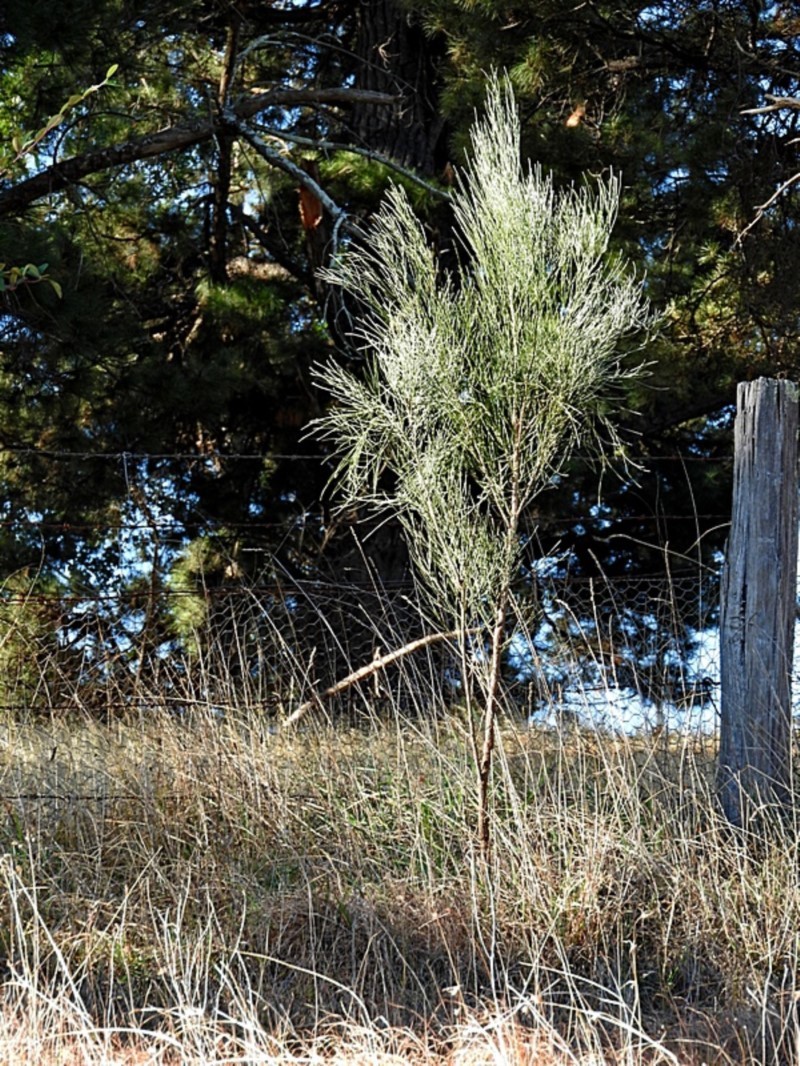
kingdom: Plantae
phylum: Tracheophyta
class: Magnoliopsida
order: Fabales
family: Fabaceae
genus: Jacksonia
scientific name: Jacksonia scoparia
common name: Dogwood
